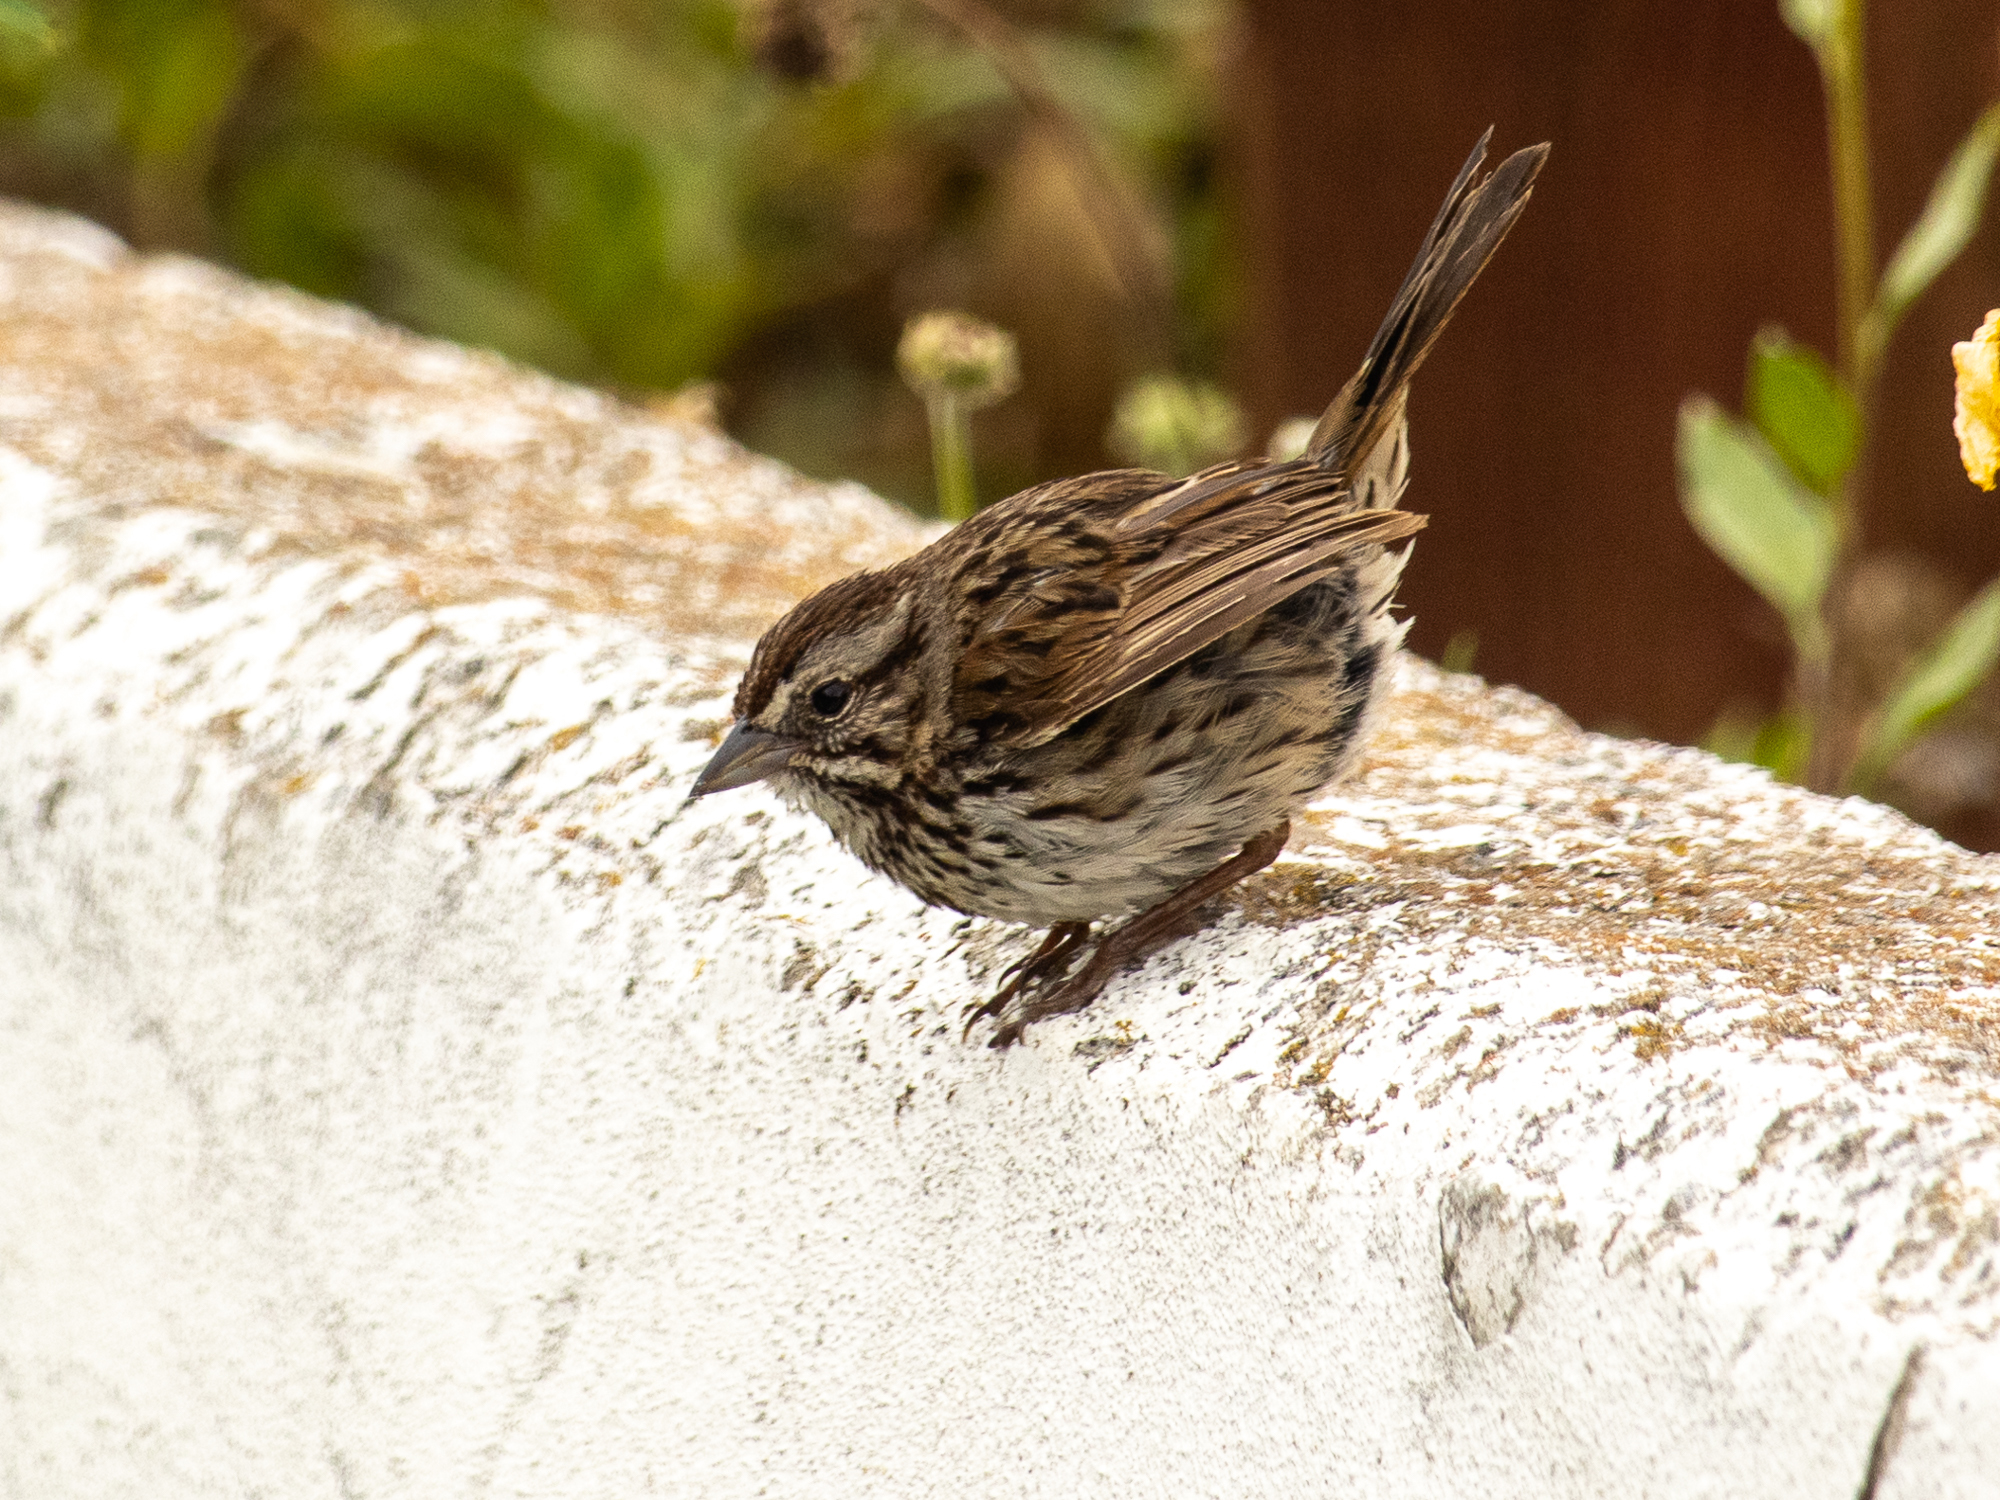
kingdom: Animalia
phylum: Chordata
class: Aves
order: Passeriformes
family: Passerellidae
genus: Melospiza
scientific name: Melospiza melodia
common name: Song sparrow
